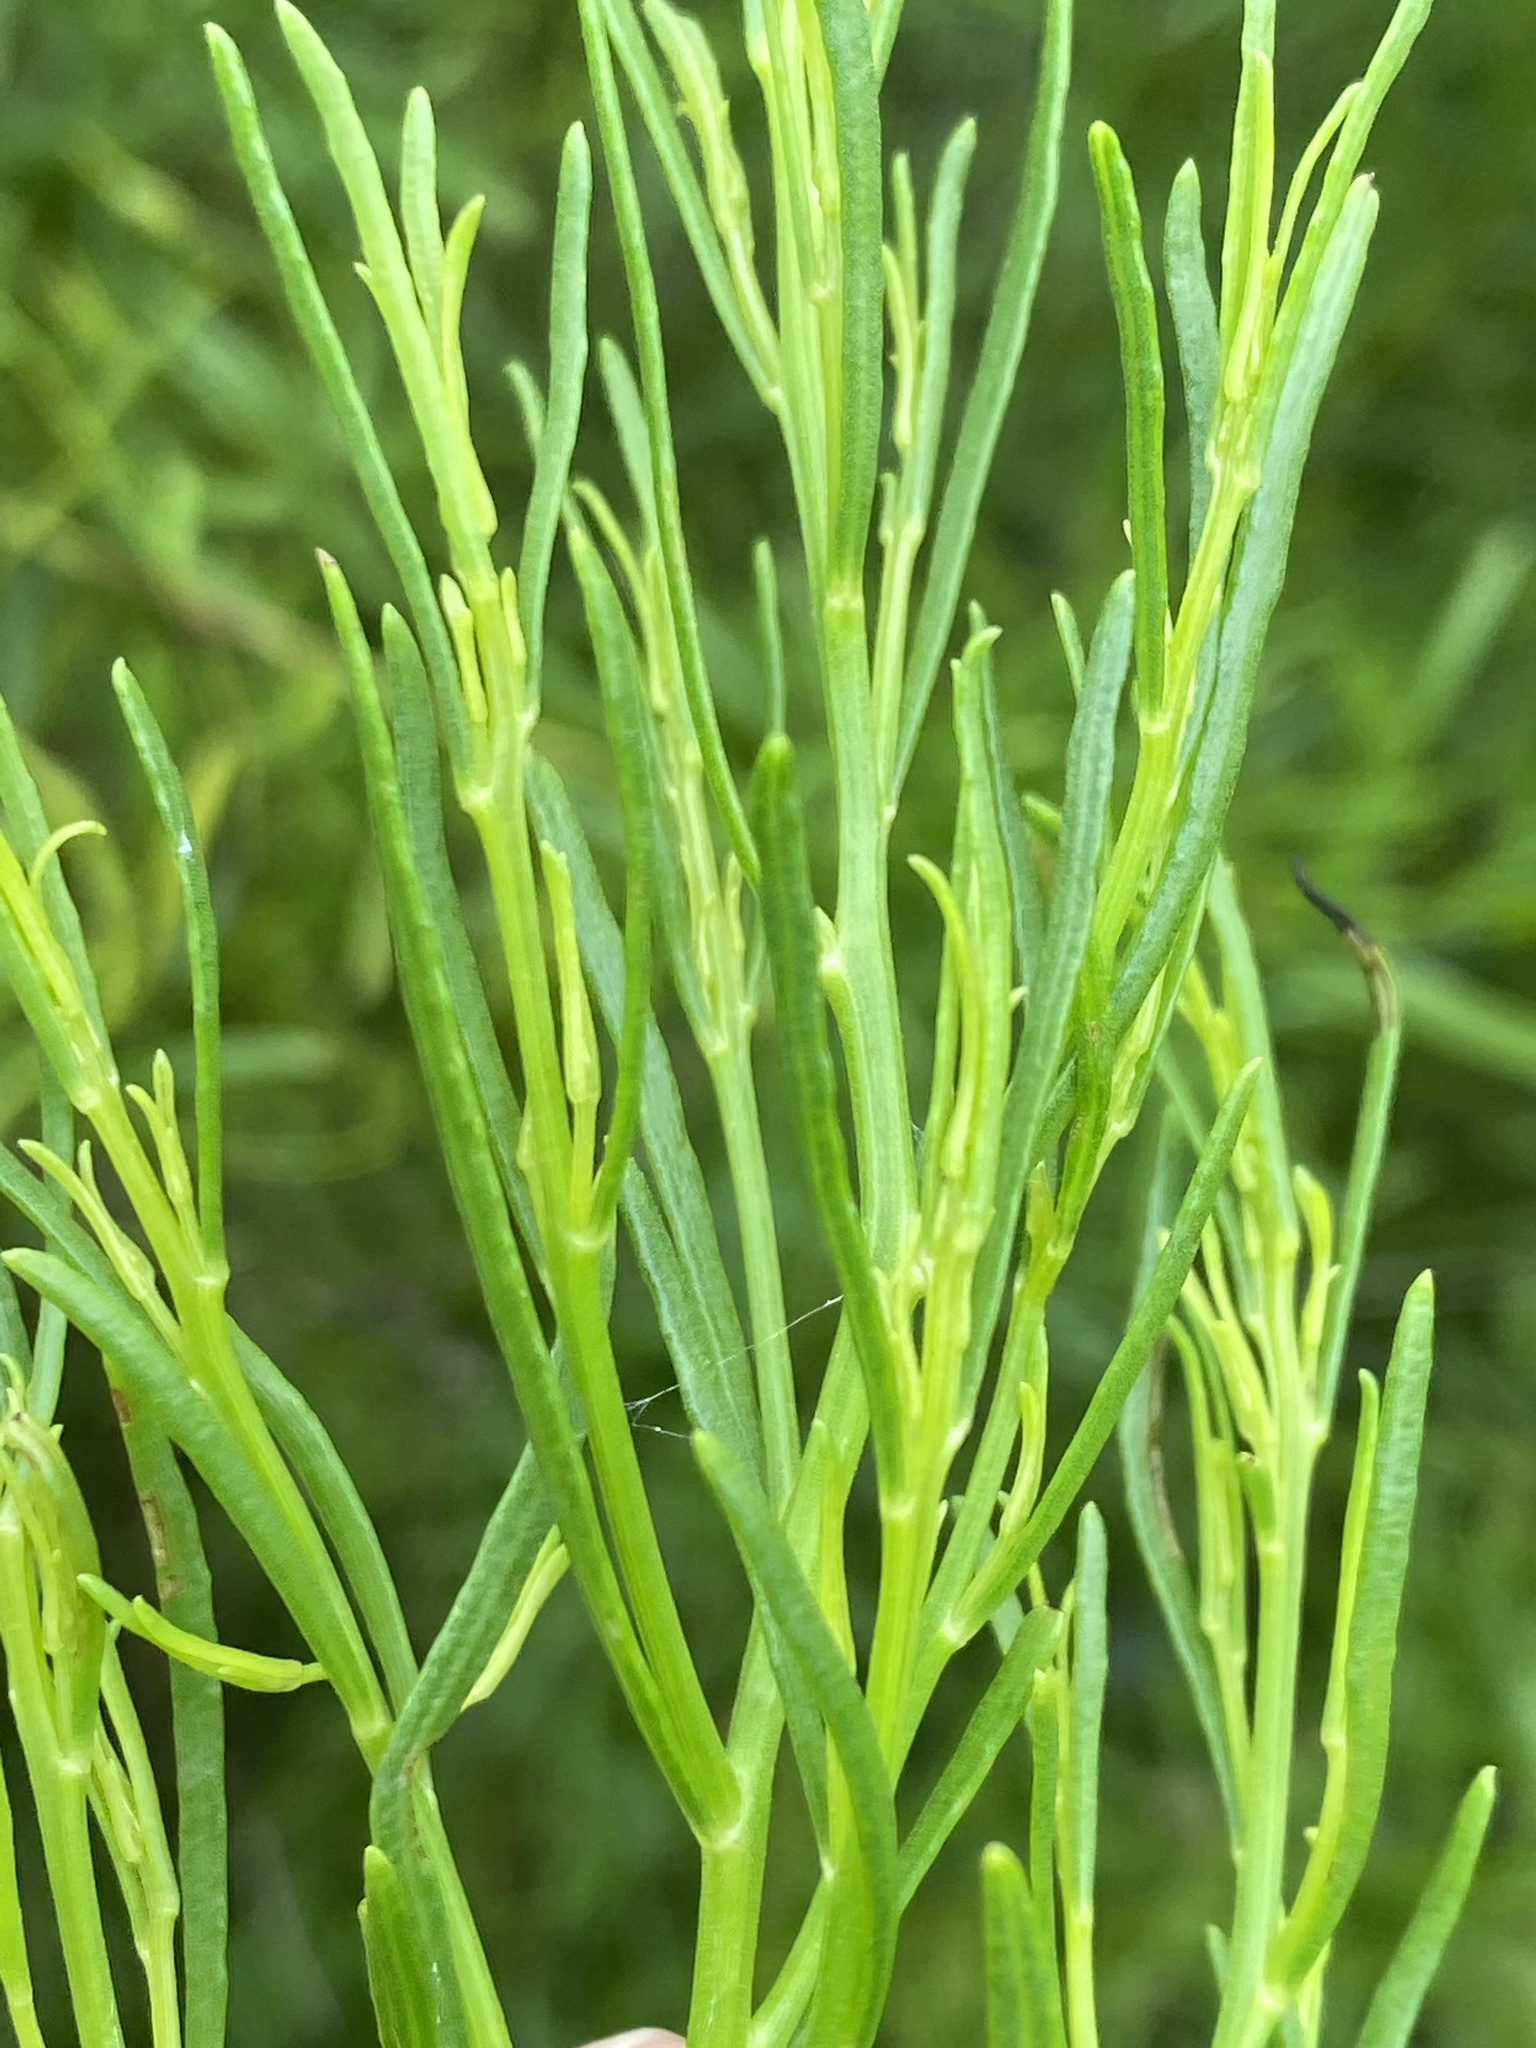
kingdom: Plantae
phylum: Tracheophyta
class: Magnoliopsida
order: Asterales
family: Asteraceae
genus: Baccharis
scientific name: Baccharis angustifolia
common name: Narrow-leaf baccharis
